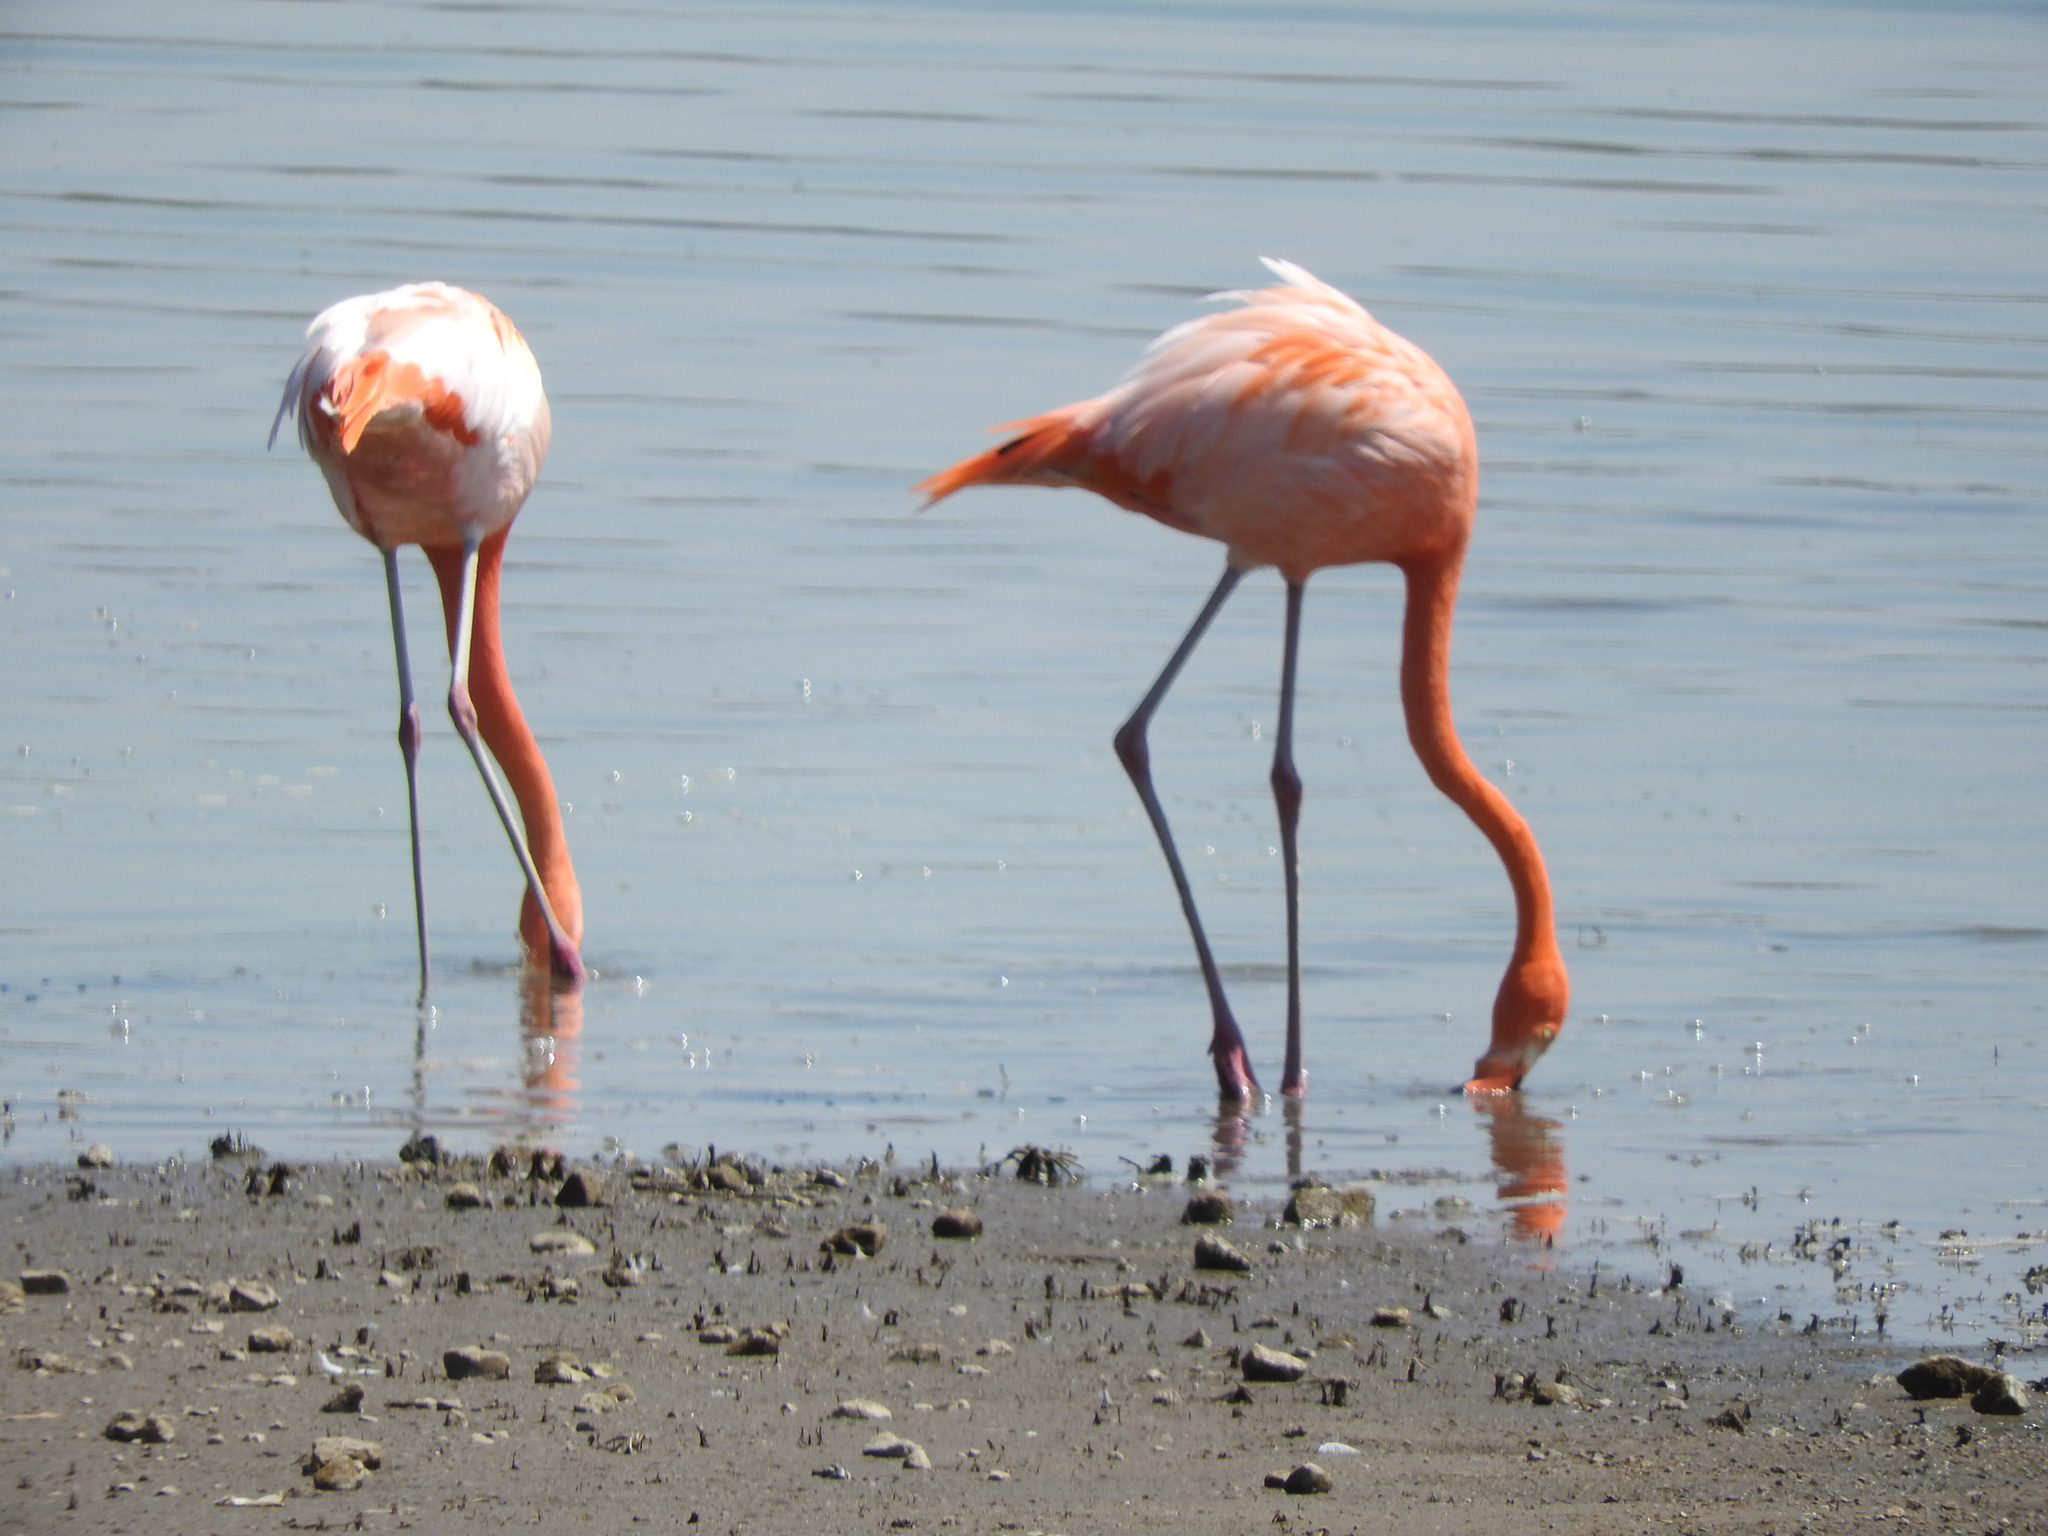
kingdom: Animalia
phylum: Chordata
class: Aves
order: Phoenicopteriformes
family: Phoenicopteridae
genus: Phoenicopterus
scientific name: Phoenicopterus ruber
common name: American flamingo
